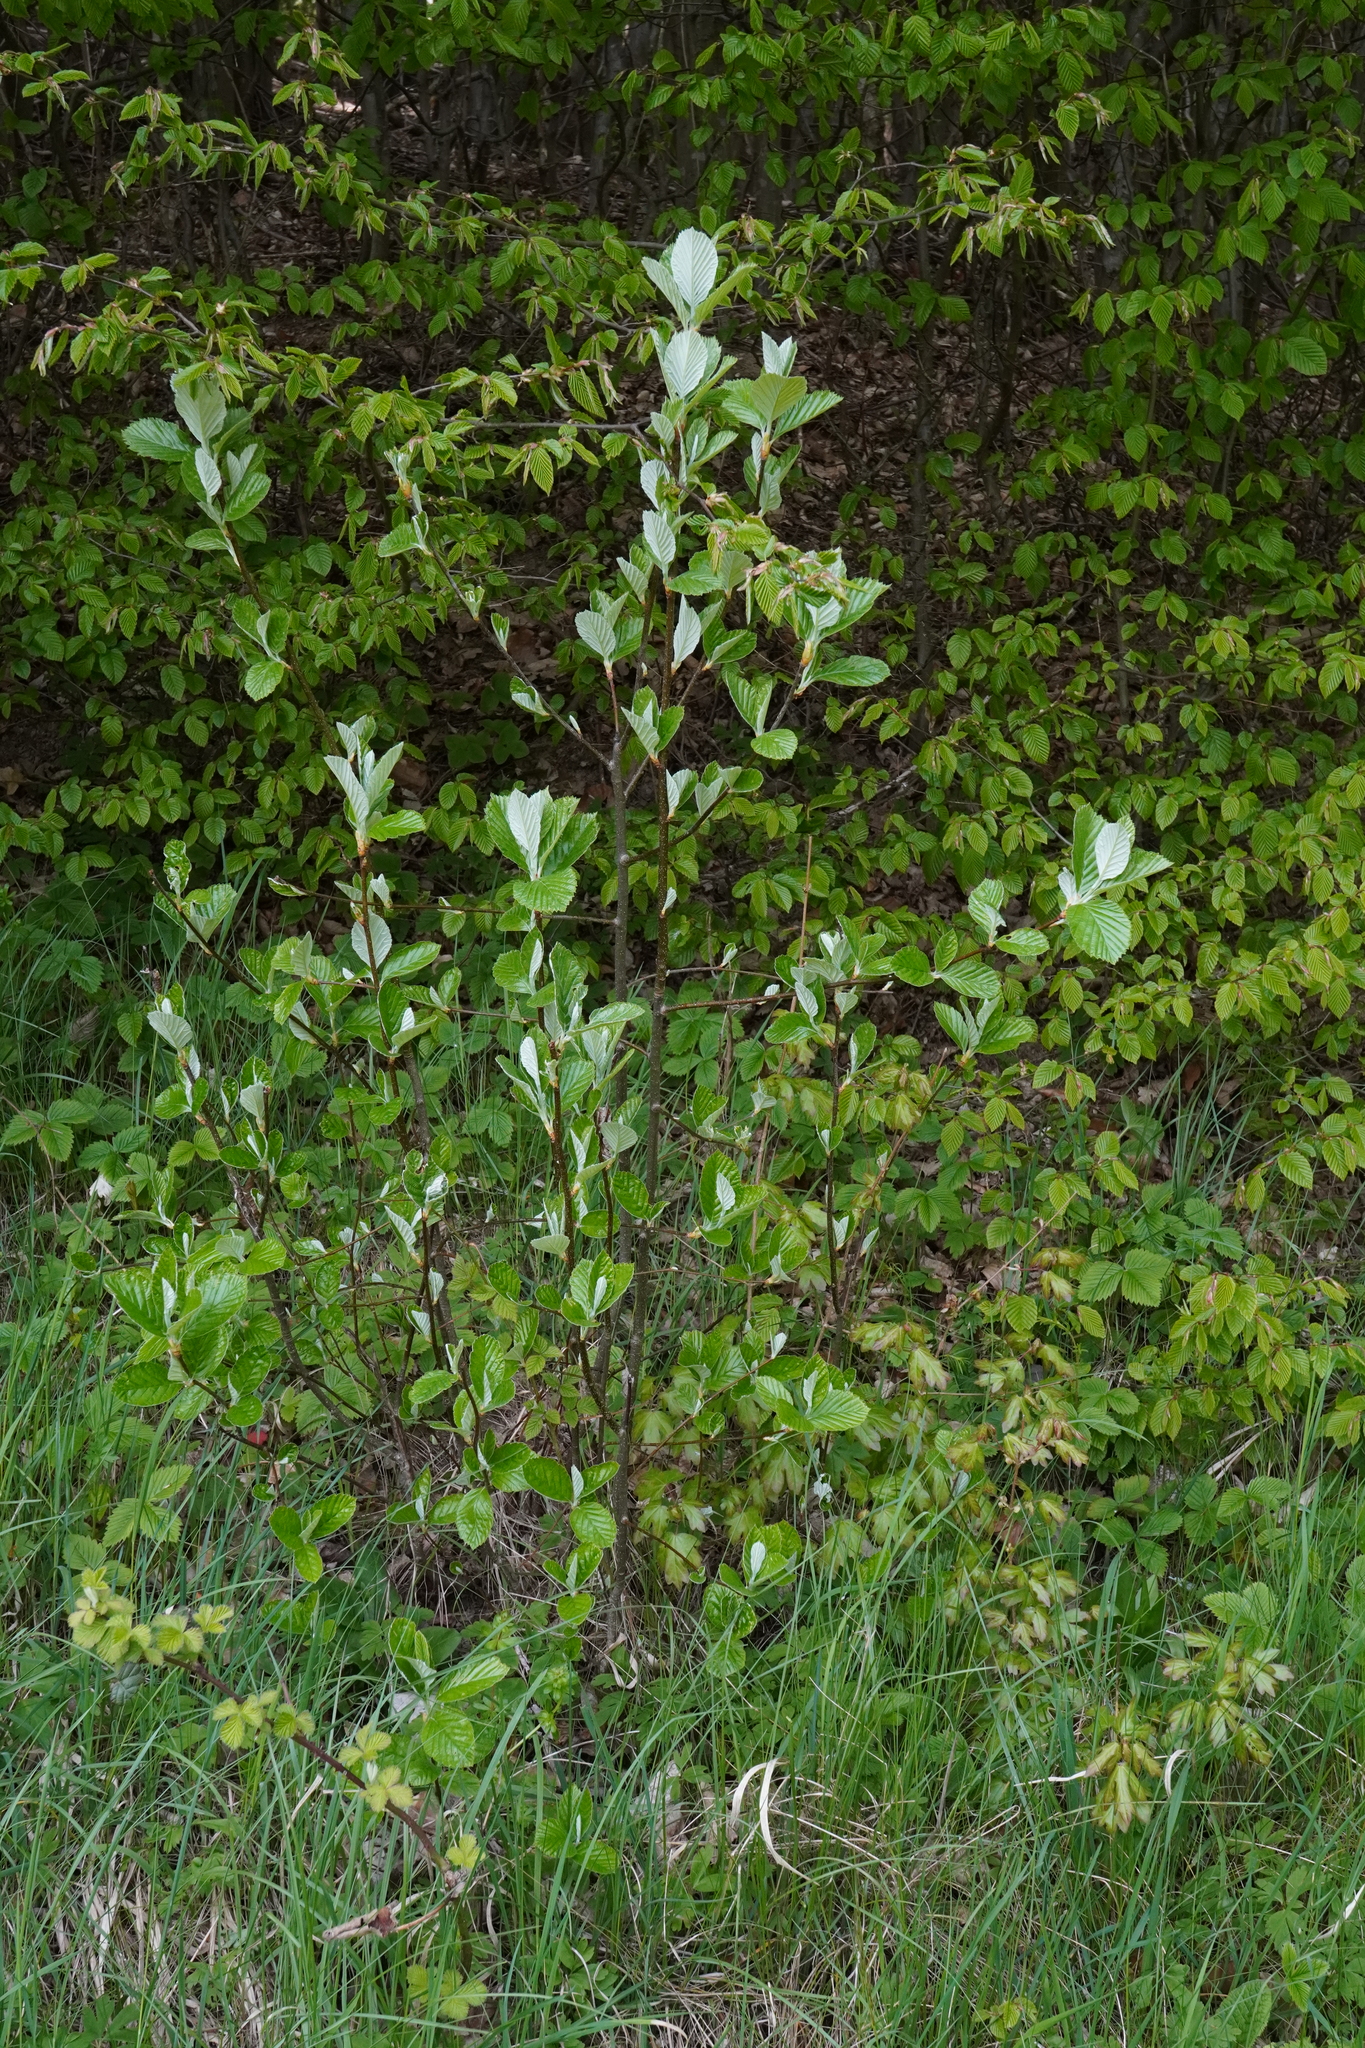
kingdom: Plantae
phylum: Tracheophyta
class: Magnoliopsida
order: Rosales
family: Rosaceae
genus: Aria
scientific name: Aria edulis
